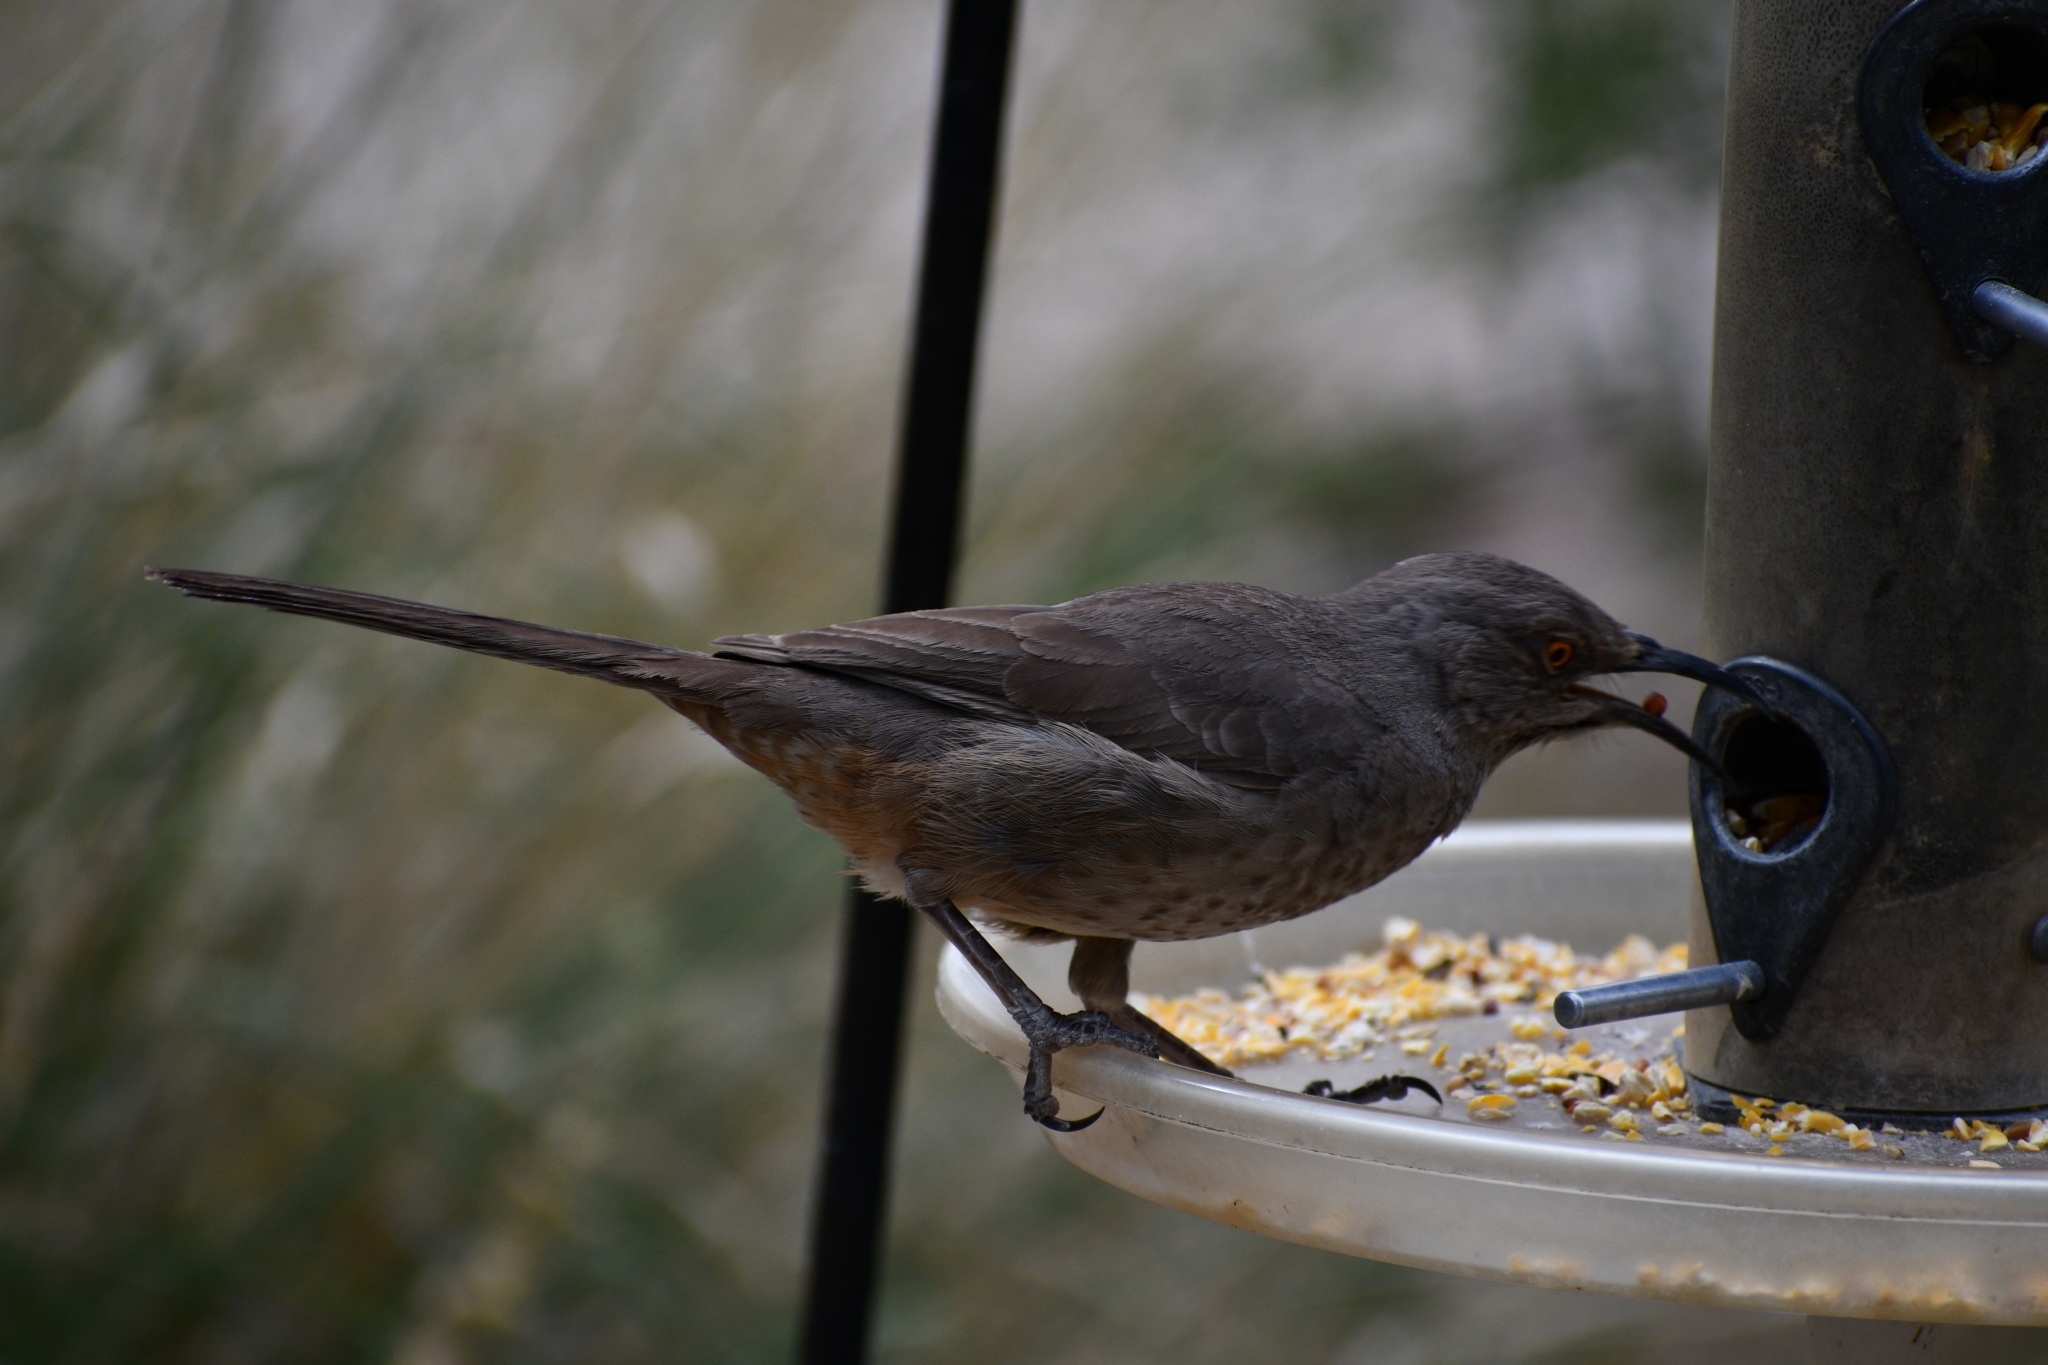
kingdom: Animalia
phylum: Chordata
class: Aves
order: Passeriformes
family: Mimidae
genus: Toxostoma
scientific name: Toxostoma curvirostre
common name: Curve-billed thrasher
